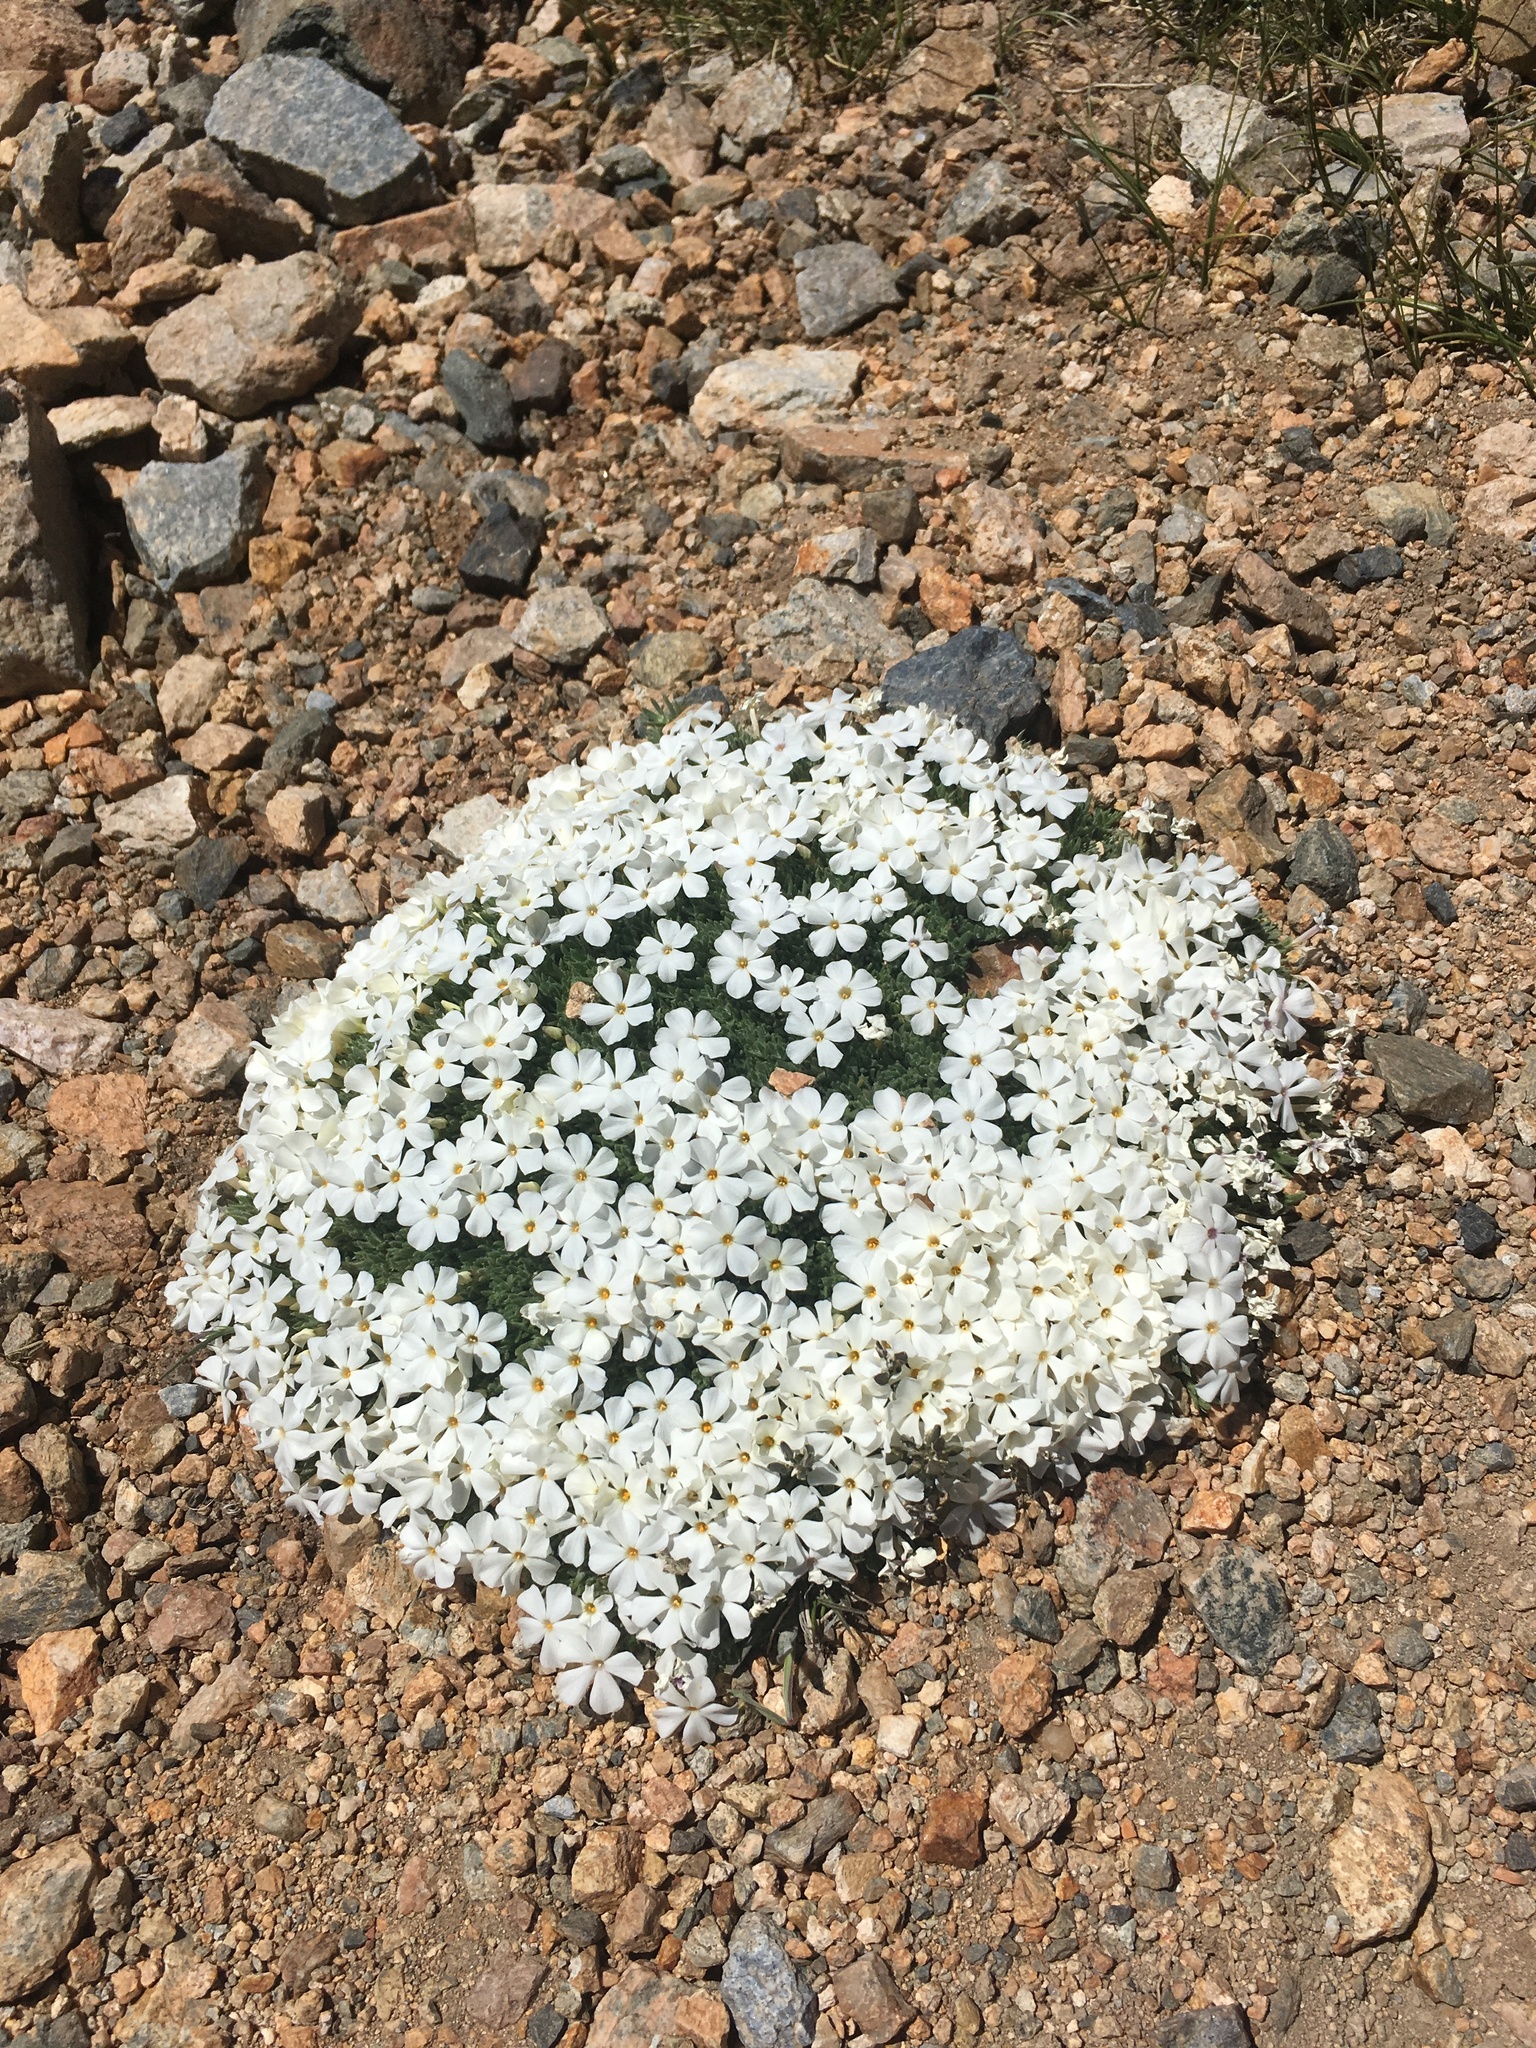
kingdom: Plantae
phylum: Tracheophyta
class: Magnoliopsida
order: Ericales
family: Polemoniaceae
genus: Phlox
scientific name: Phlox condensata
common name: Compact phlox
